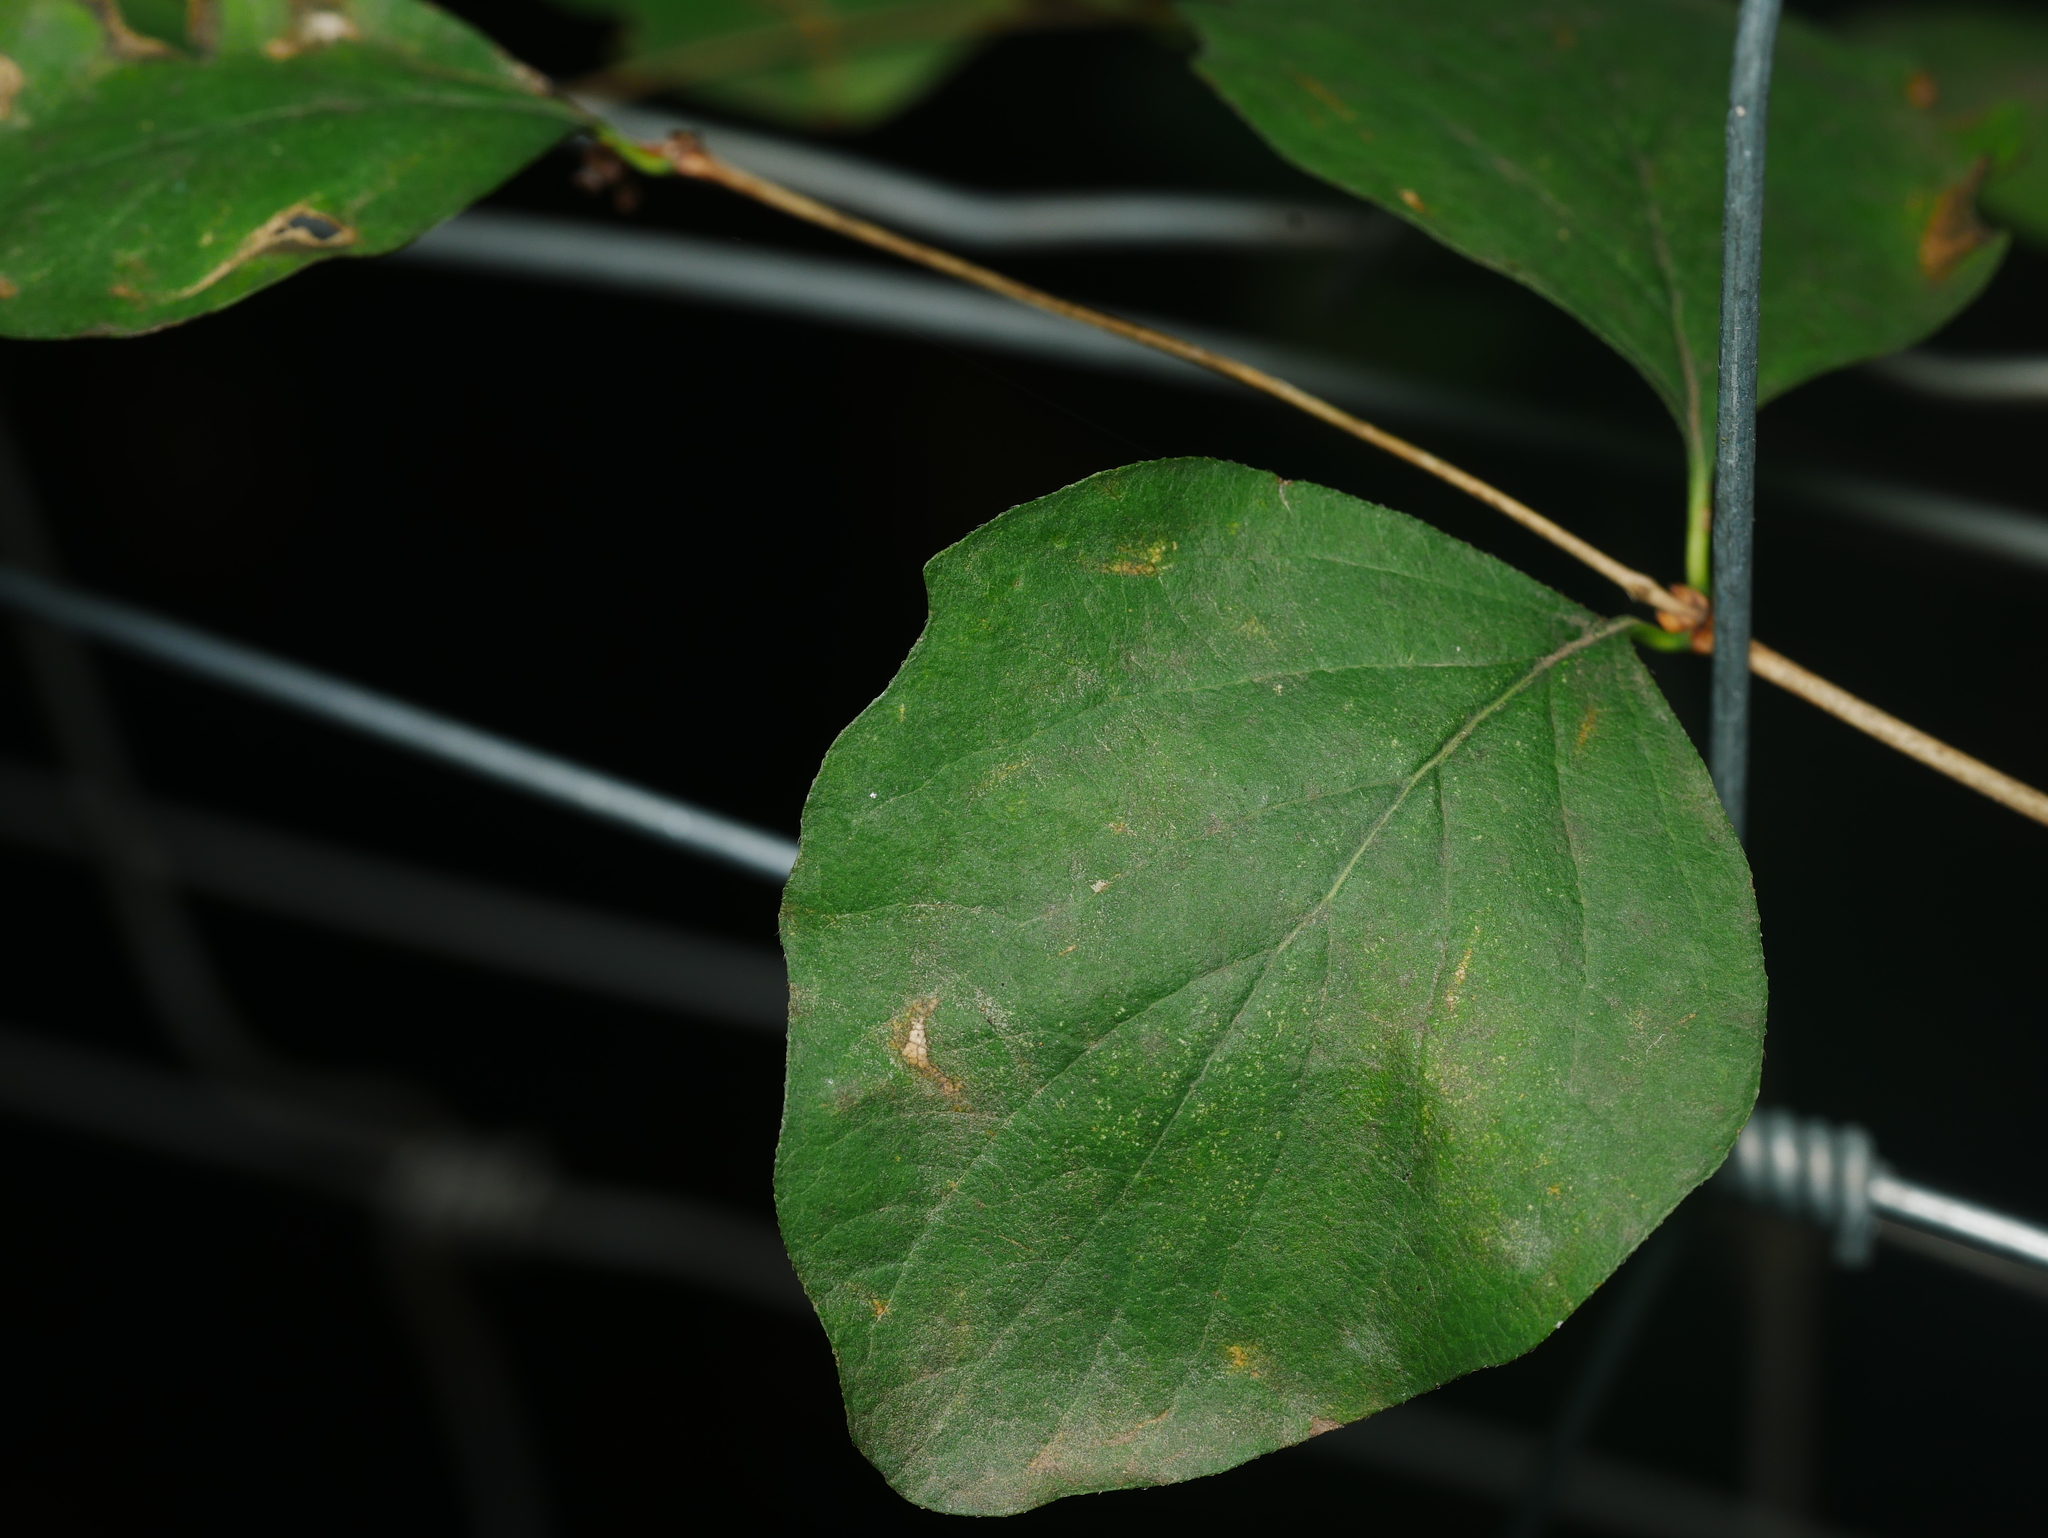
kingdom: Plantae
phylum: Tracheophyta
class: Magnoliopsida
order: Dipsacales
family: Caprifoliaceae
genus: Symphoricarpos
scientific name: Symphoricarpos albus
